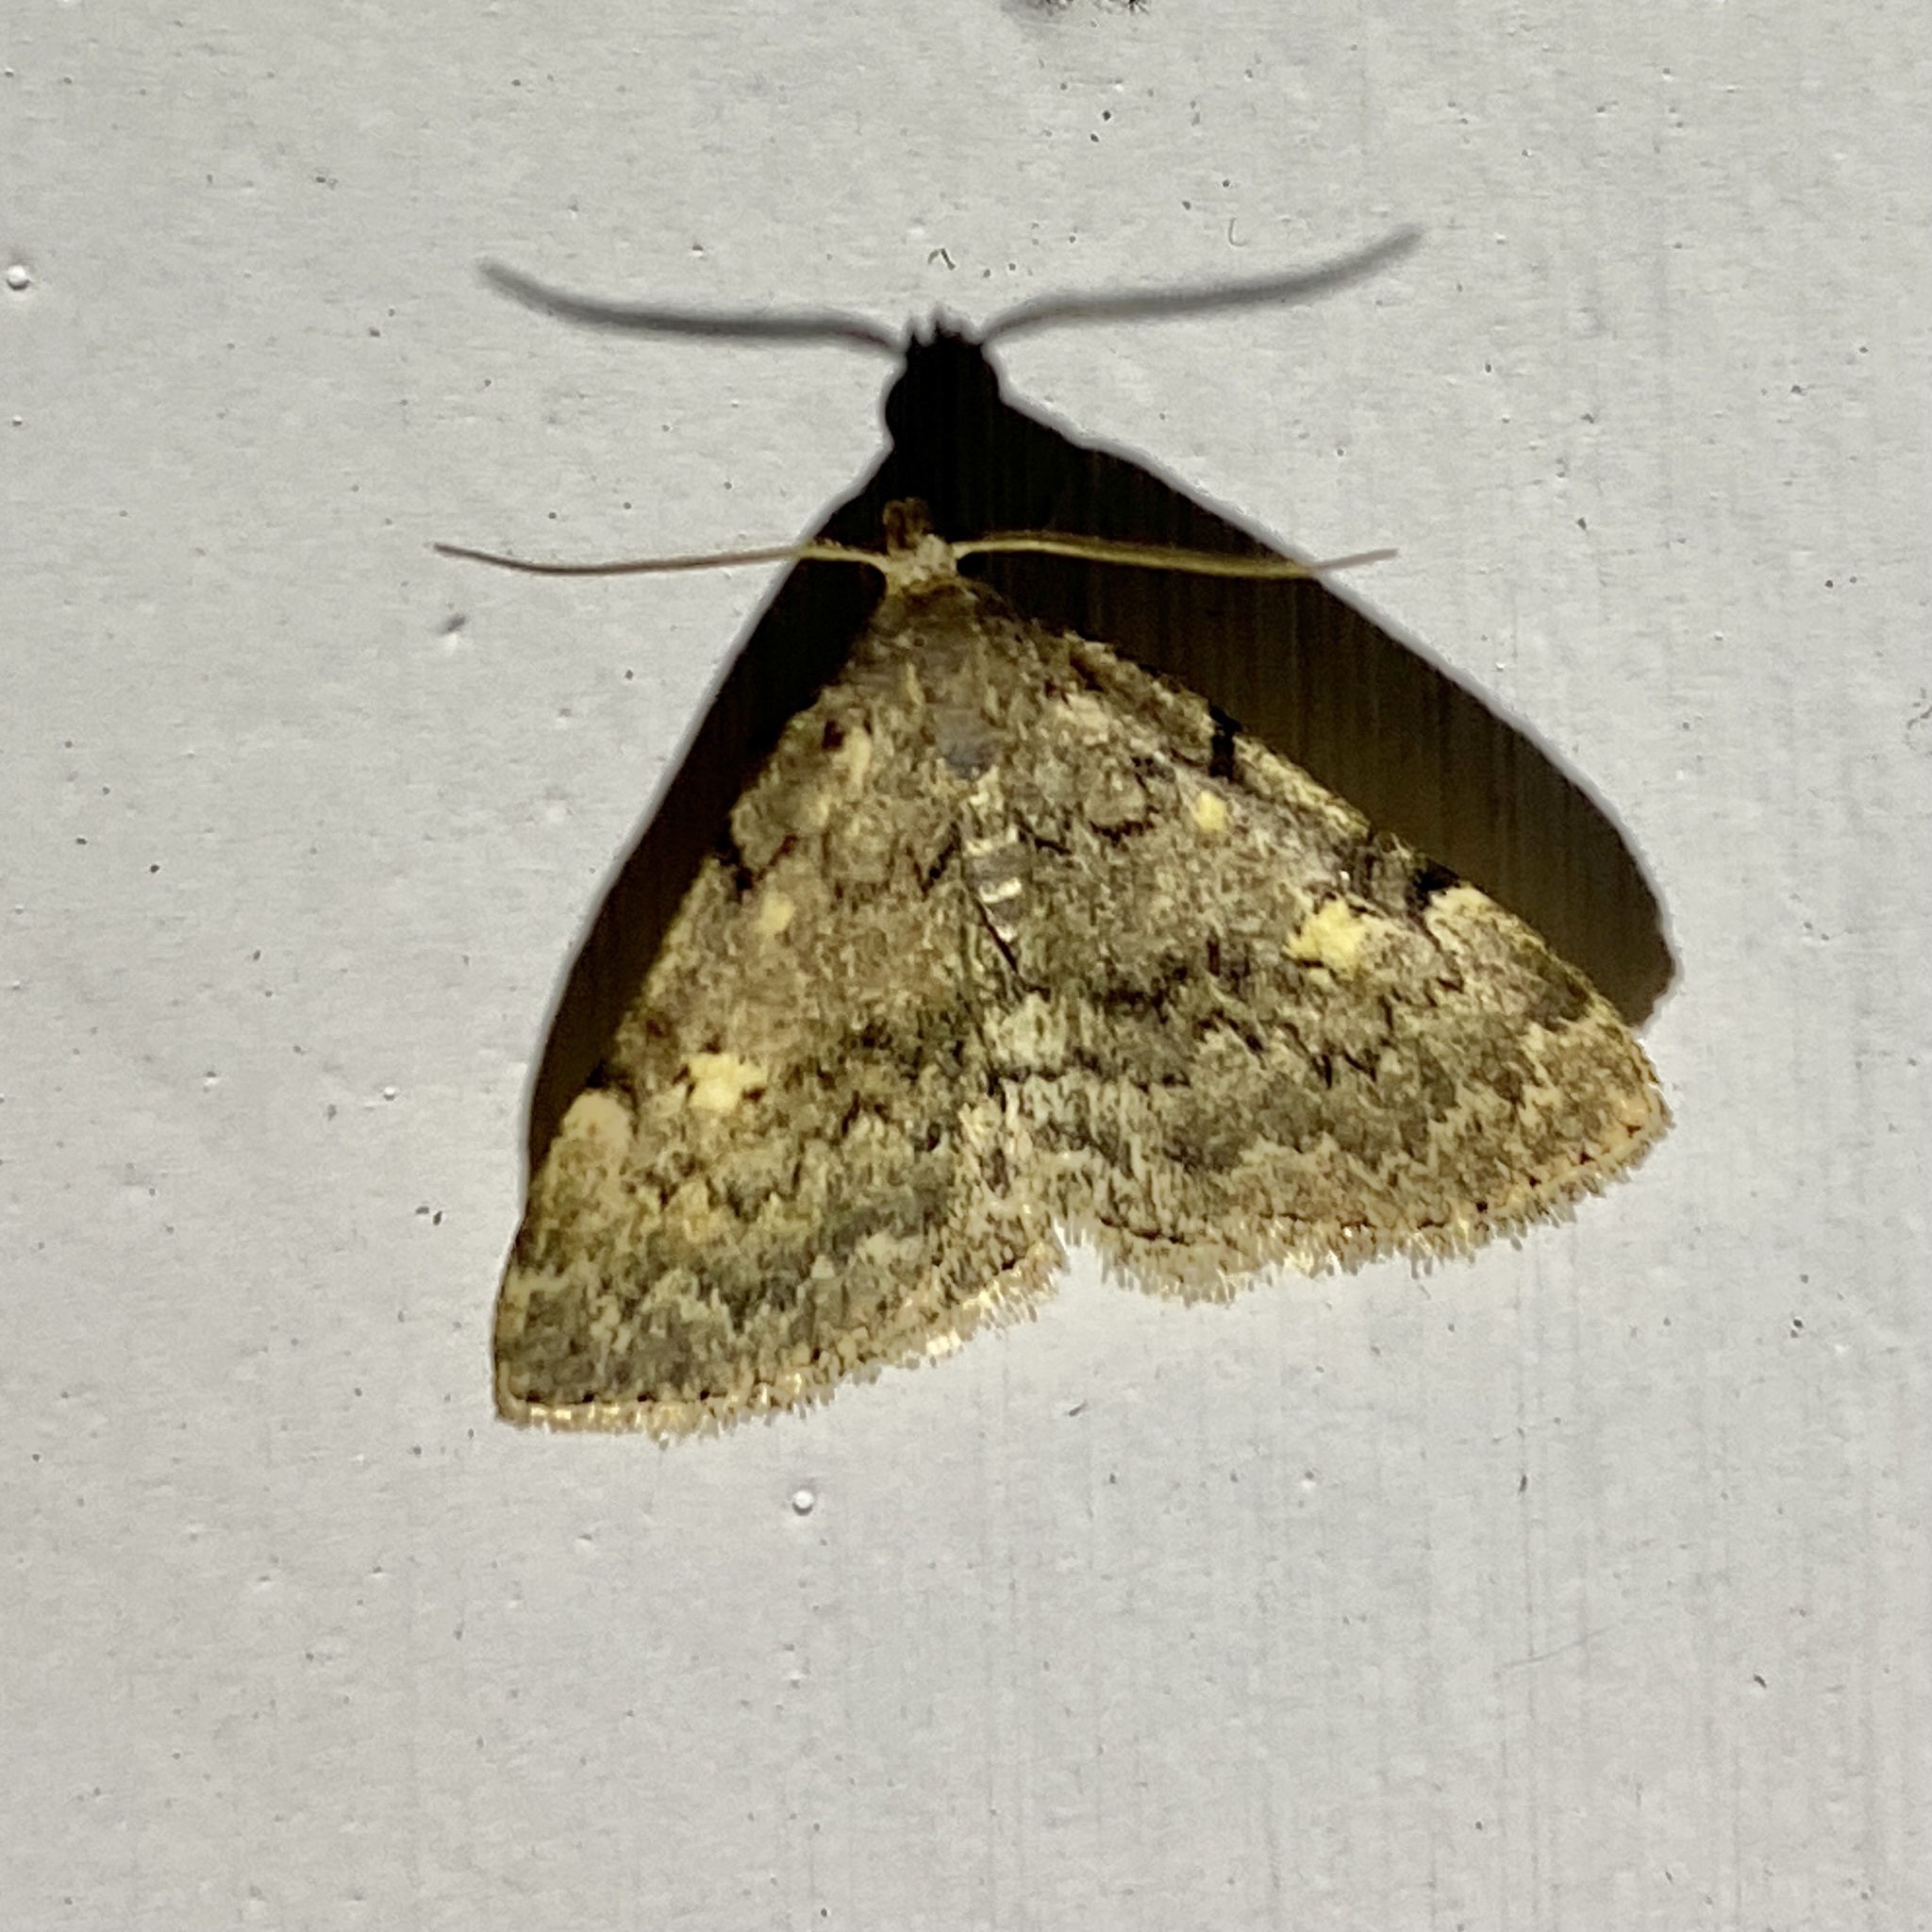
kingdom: Animalia
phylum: Arthropoda
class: Insecta
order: Lepidoptera
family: Erebidae
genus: Idia
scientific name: Idia aemula
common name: Common idia moth
